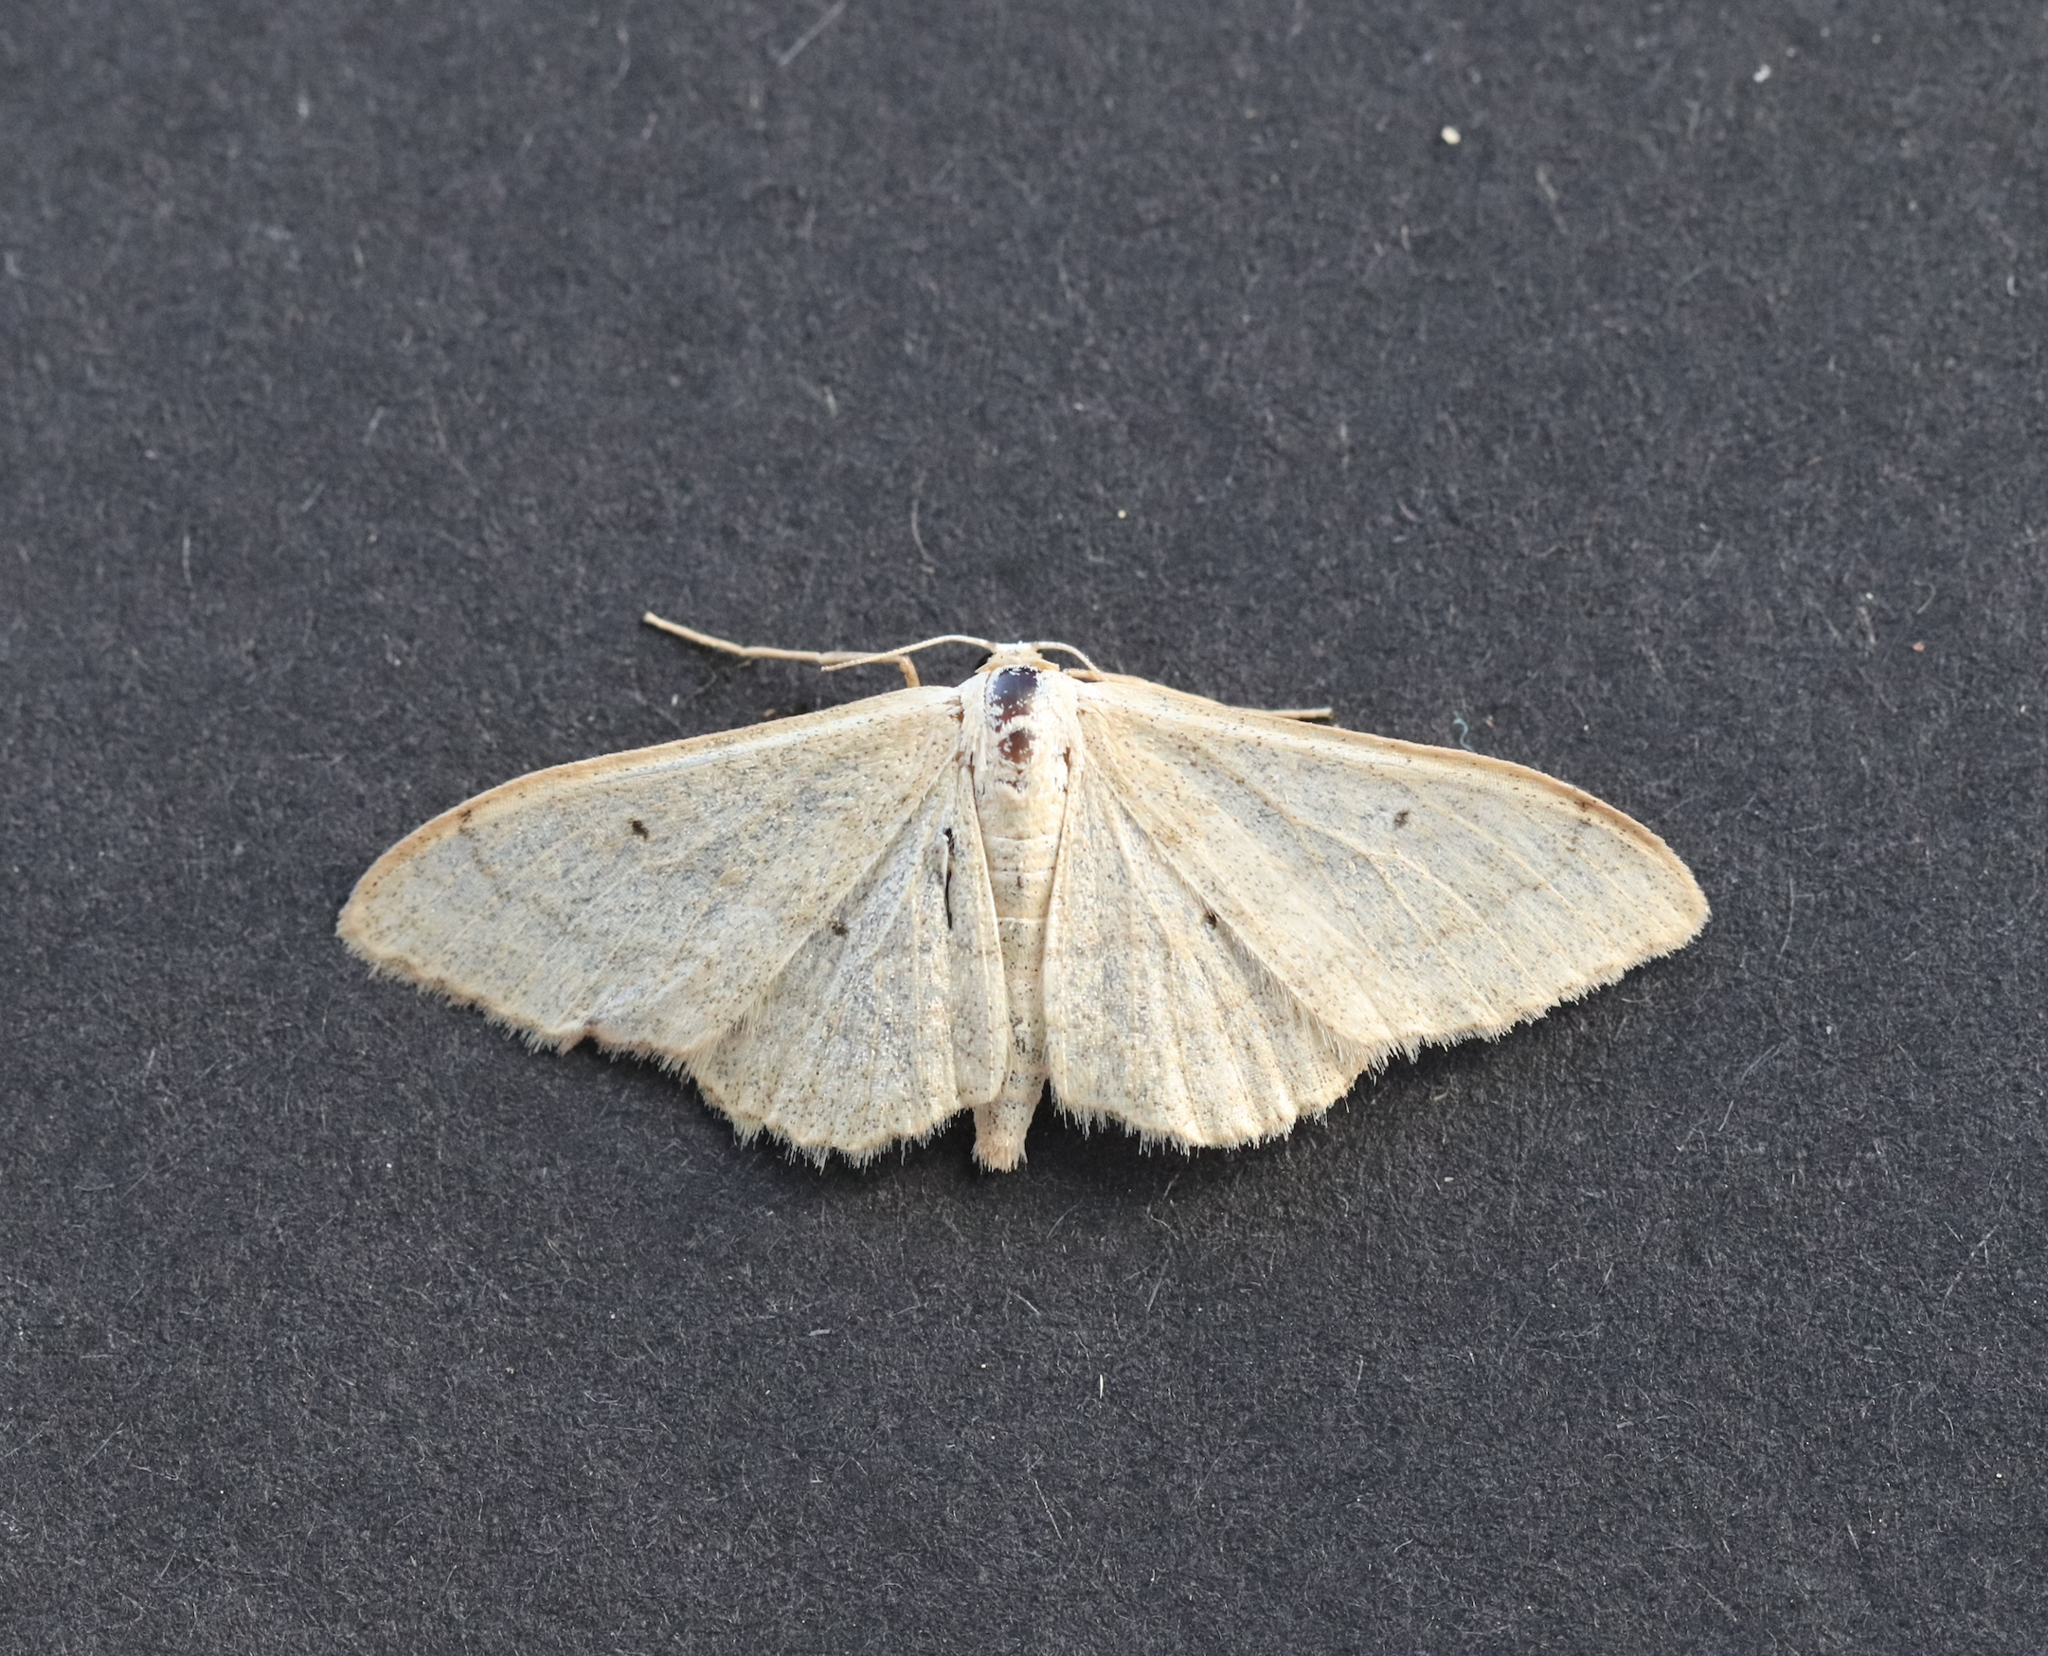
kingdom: Animalia
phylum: Arthropoda
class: Insecta
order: Lepidoptera
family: Geometridae
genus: Idaea
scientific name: Idaea straminata
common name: Plain wave
